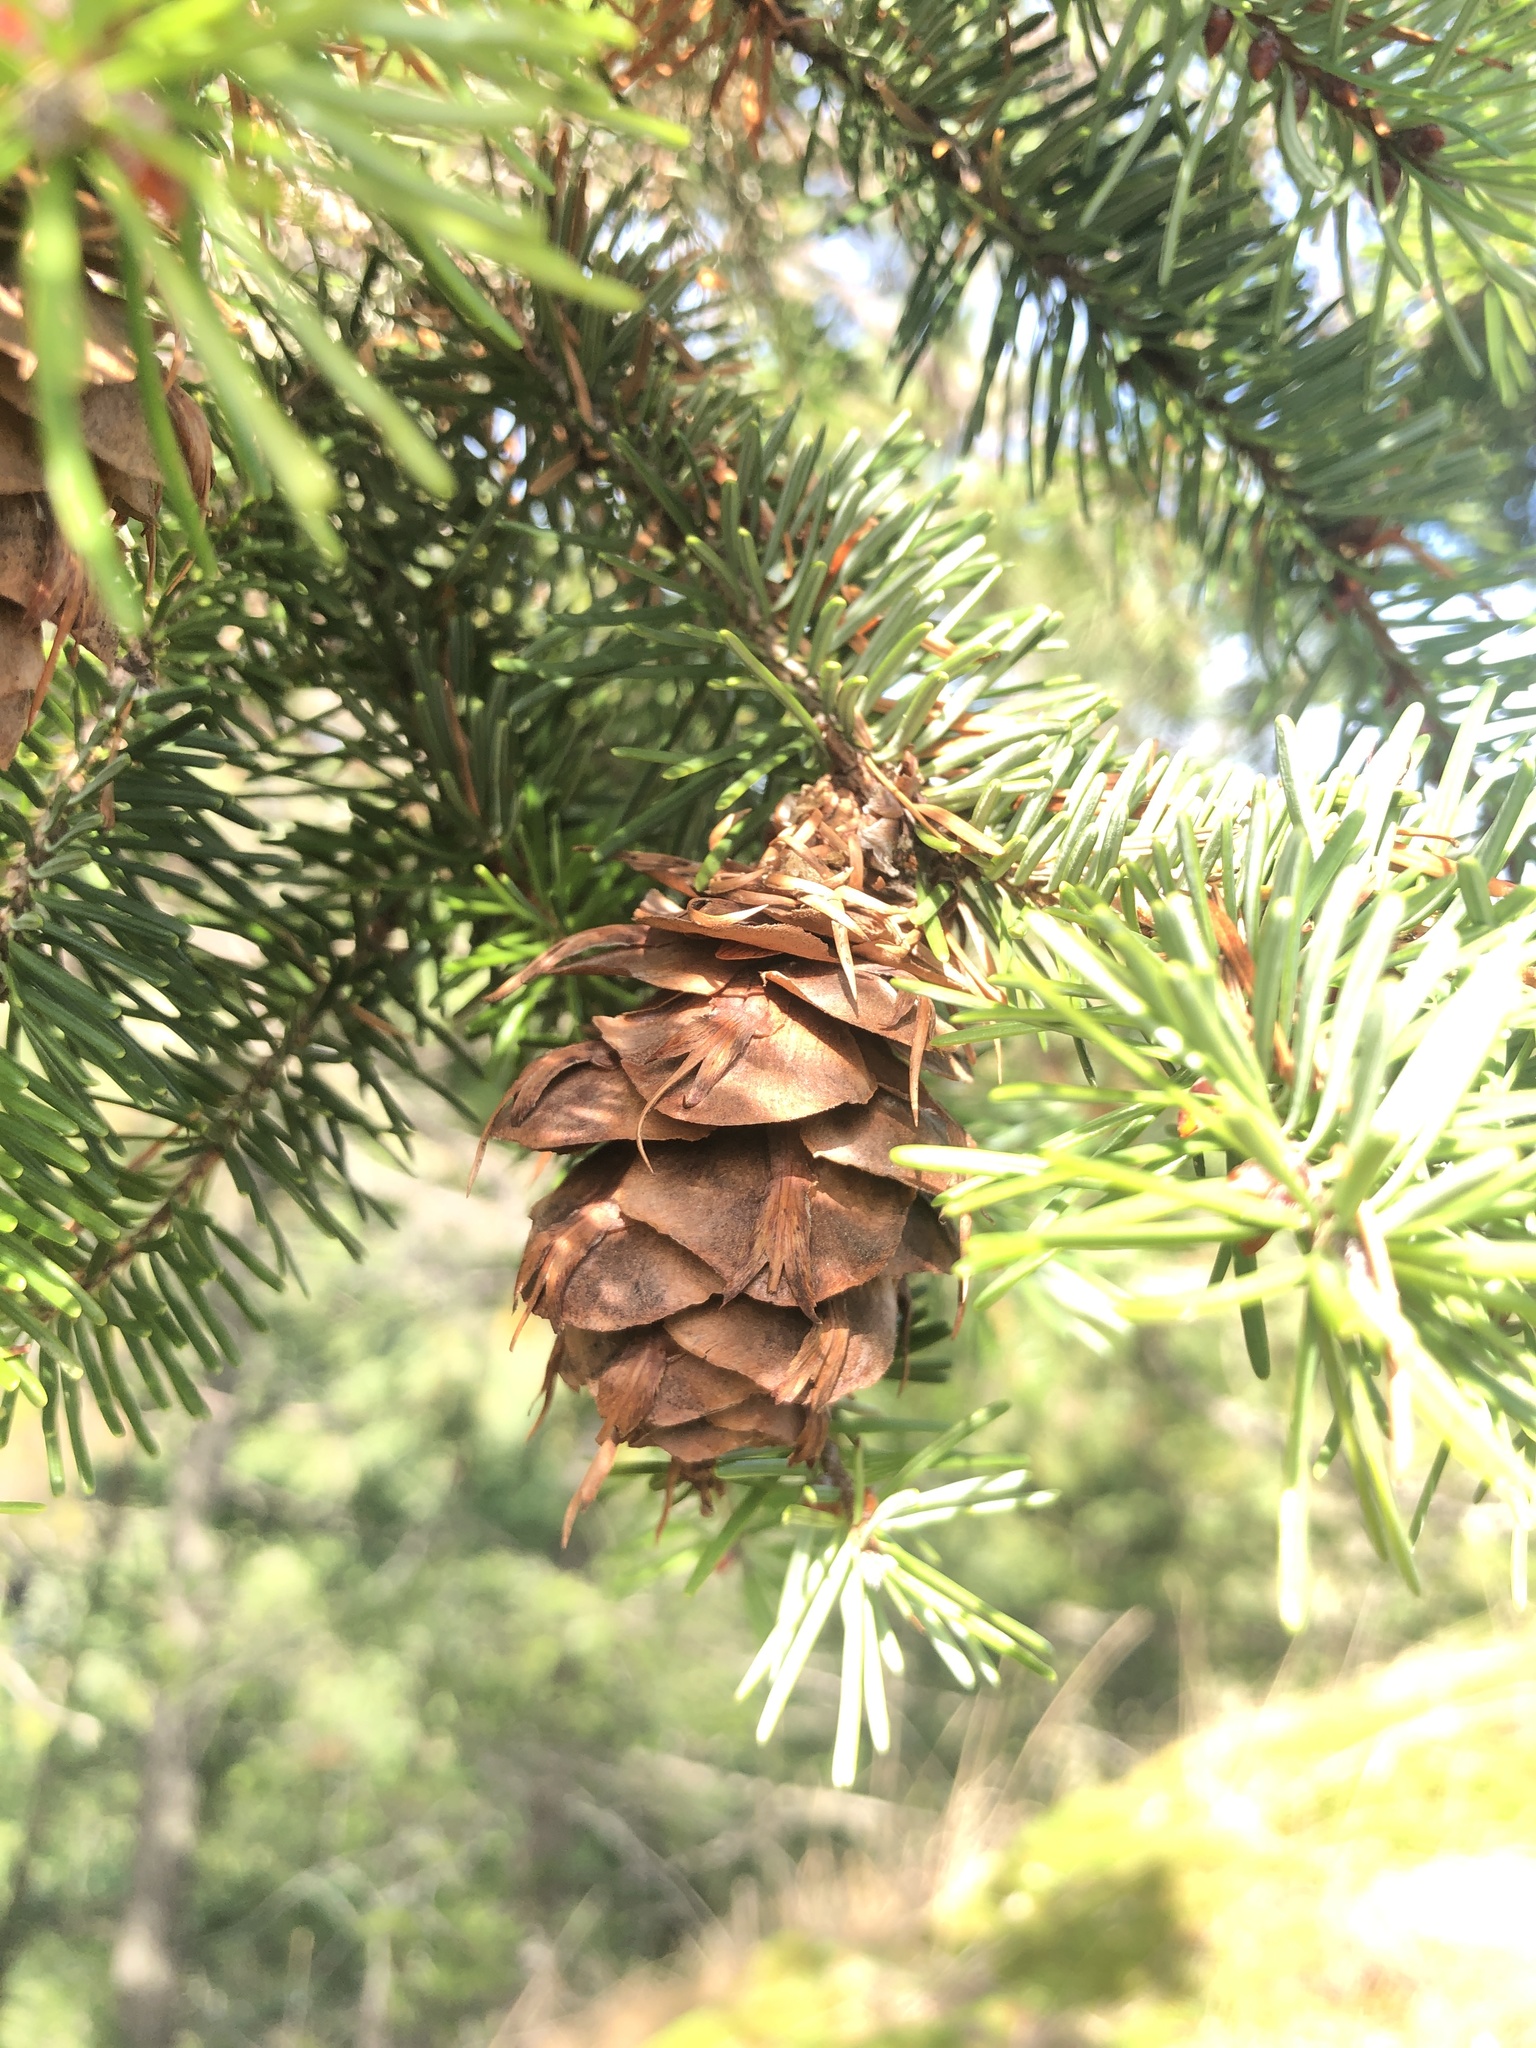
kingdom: Plantae
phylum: Tracheophyta
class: Pinopsida
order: Pinales
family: Pinaceae
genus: Pseudotsuga
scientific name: Pseudotsuga menziesii
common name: Douglas fir
